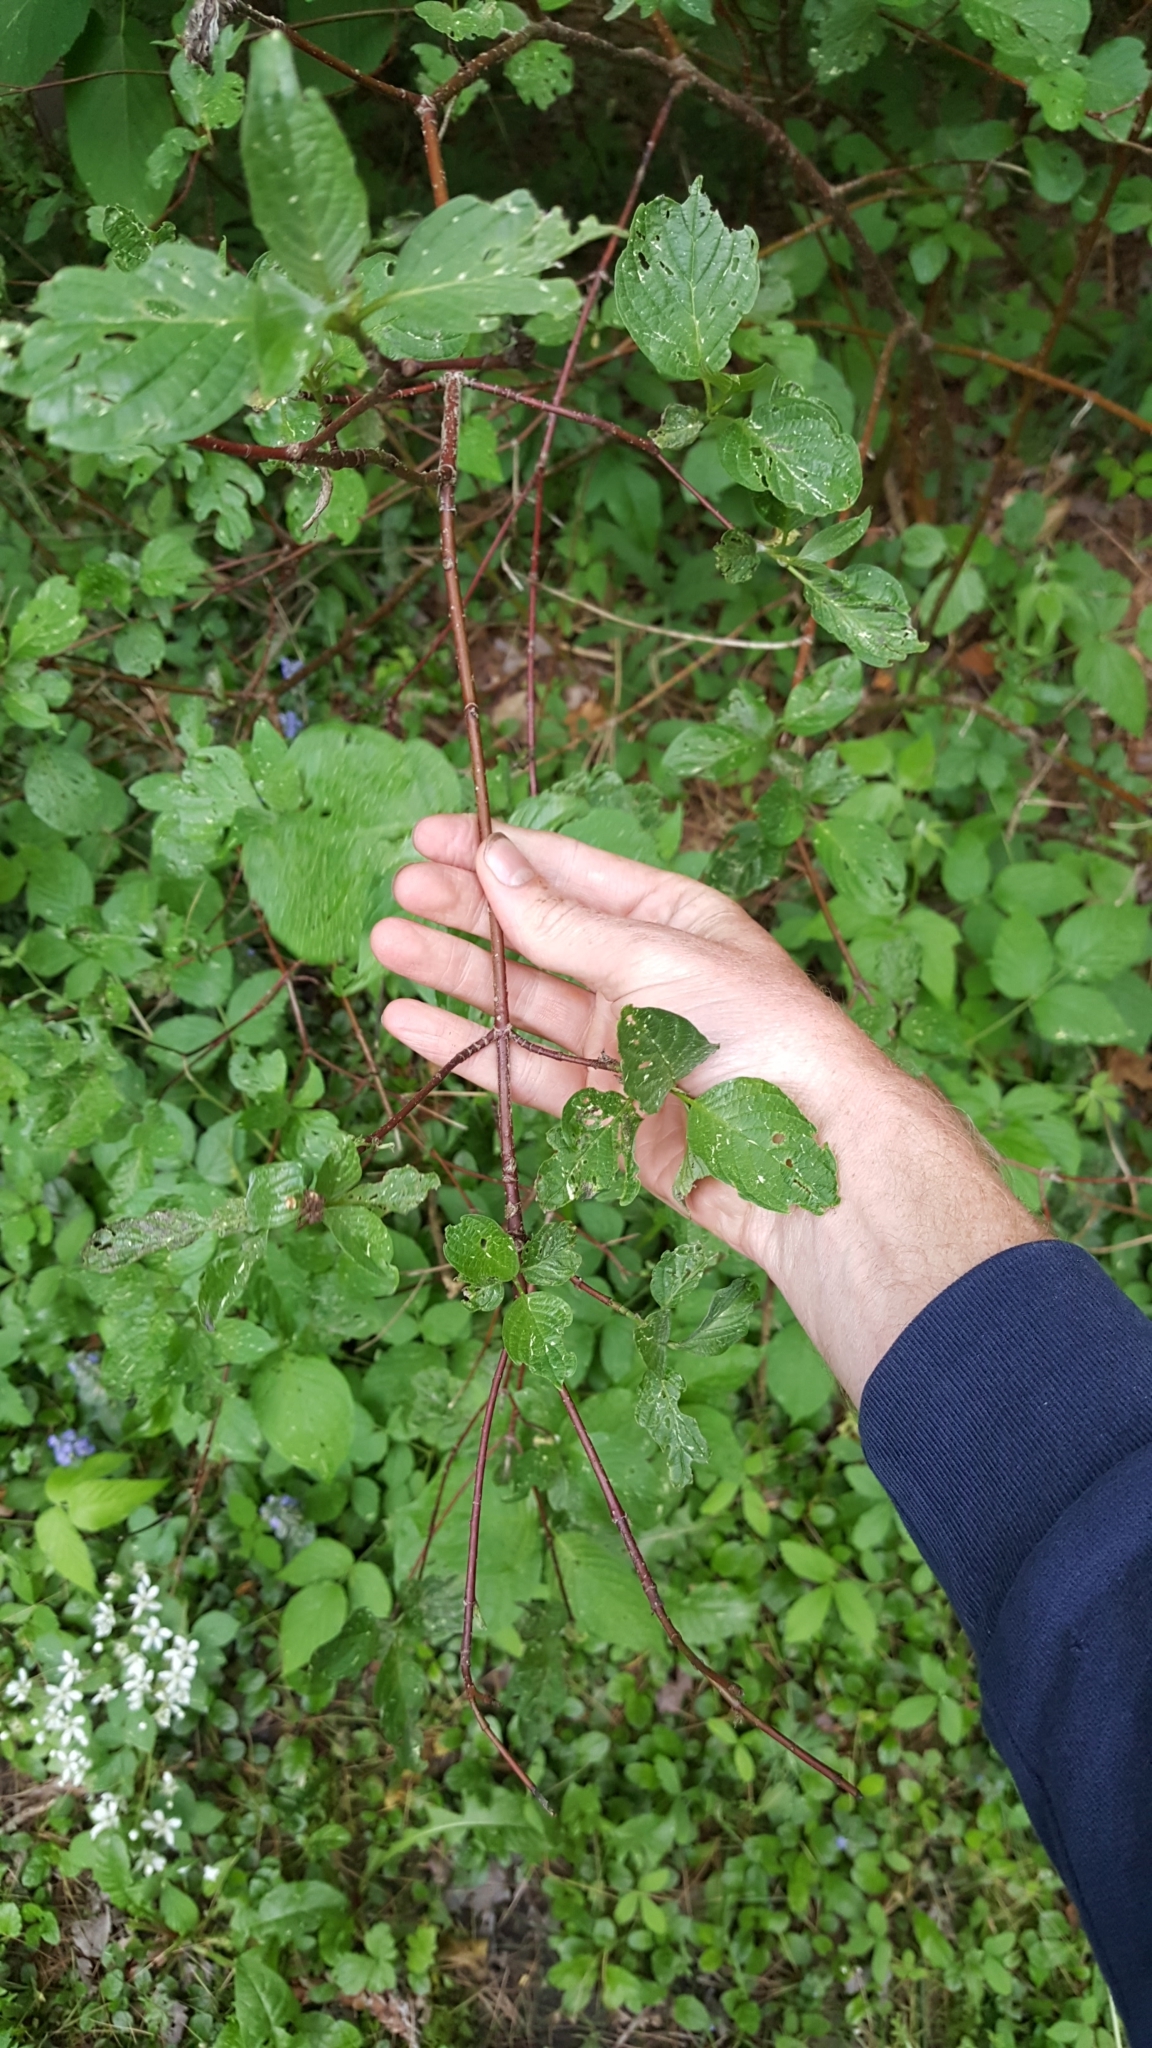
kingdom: Plantae
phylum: Tracheophyta
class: Magnoliopsida
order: Cornales
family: Cornaceae
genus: Cornus
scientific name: Cornus sericea
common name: Red-osier dogwood
